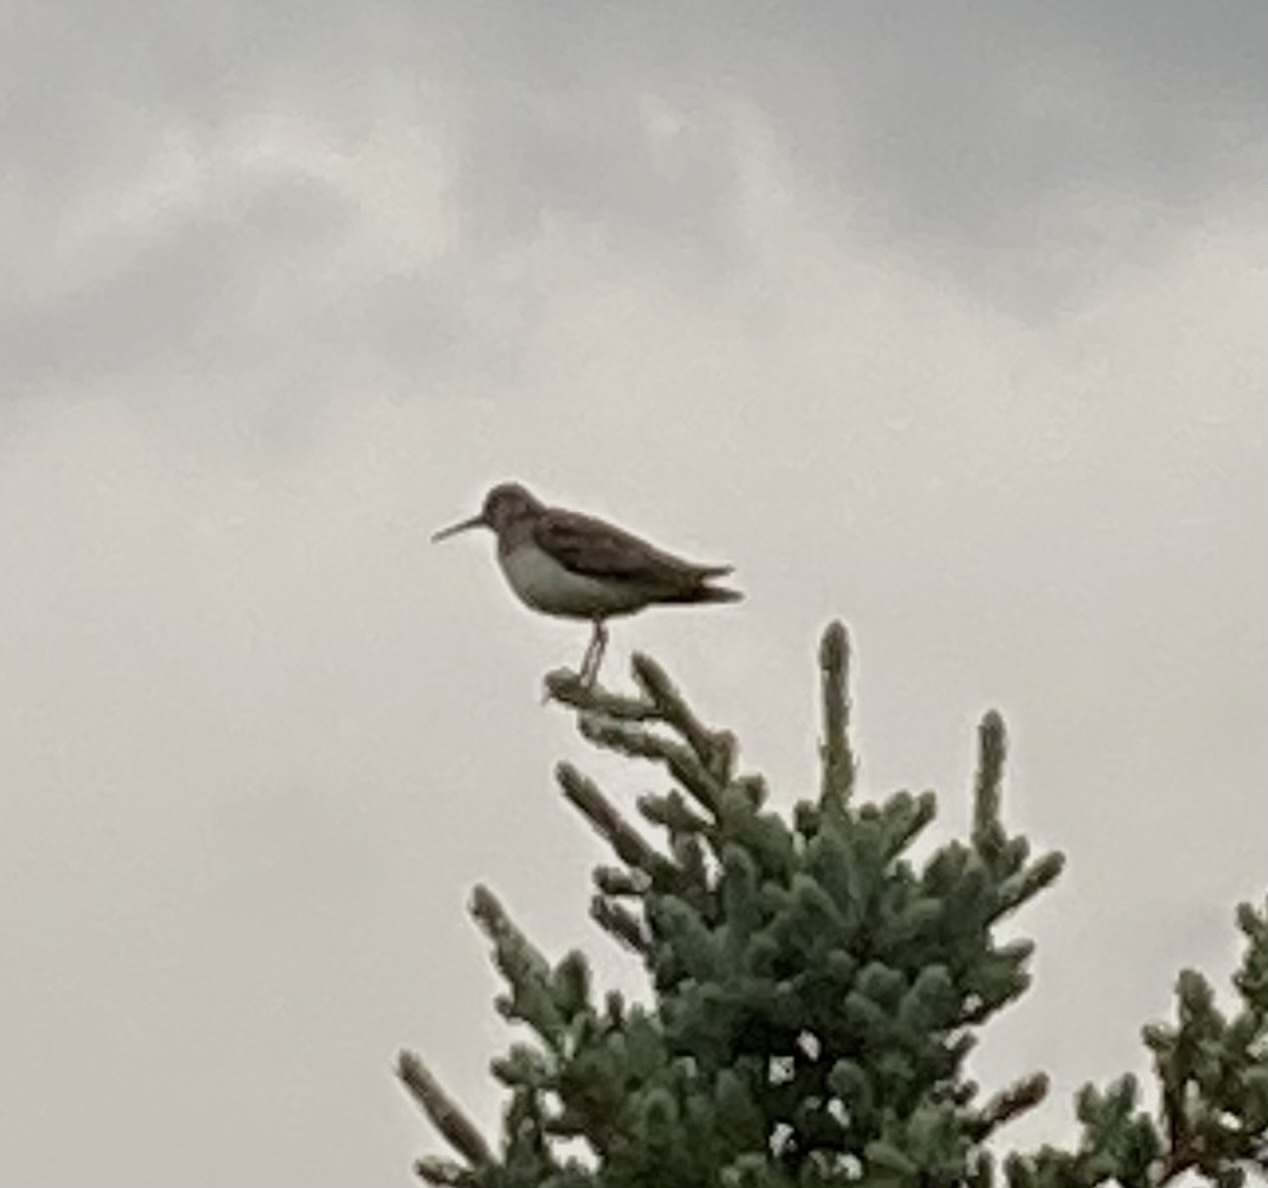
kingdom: Animalia
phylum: Chordata
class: Aves
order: Charadriiformes
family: Scolopacidae
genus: Tringa
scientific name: Tringa solitaria
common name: Solitary sandpiper
